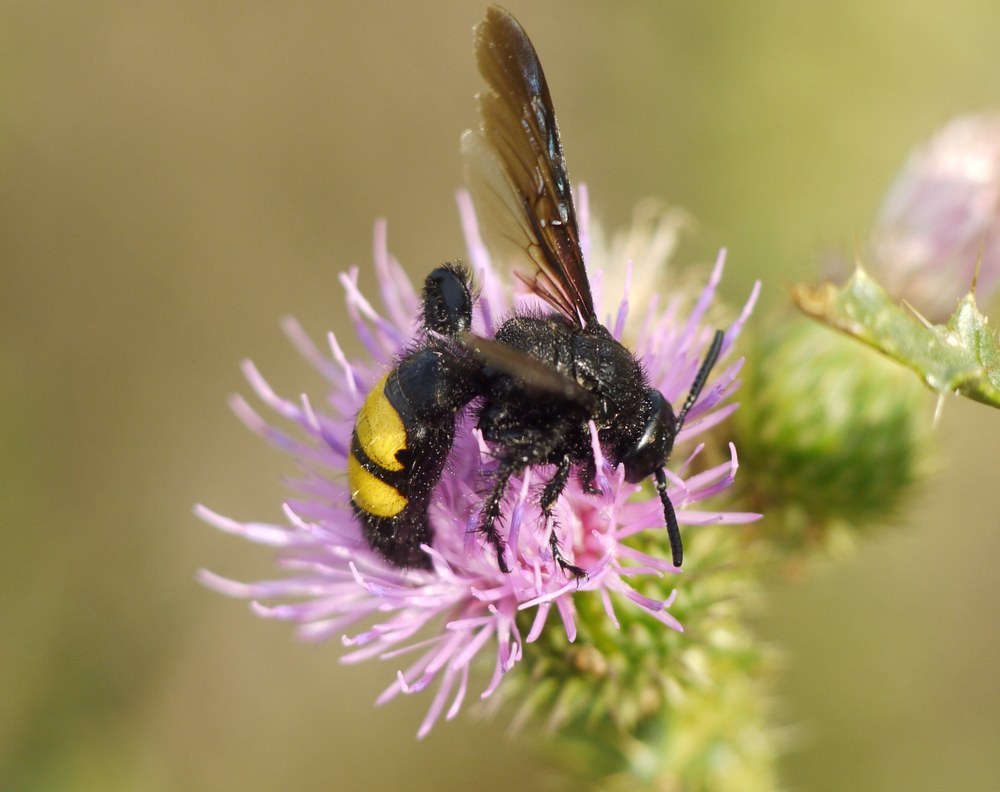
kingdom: Animalia
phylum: Arthropoda
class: Insecta
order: Hymenoptera
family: Scoliidae
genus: Scolia
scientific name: Scolia hirta
